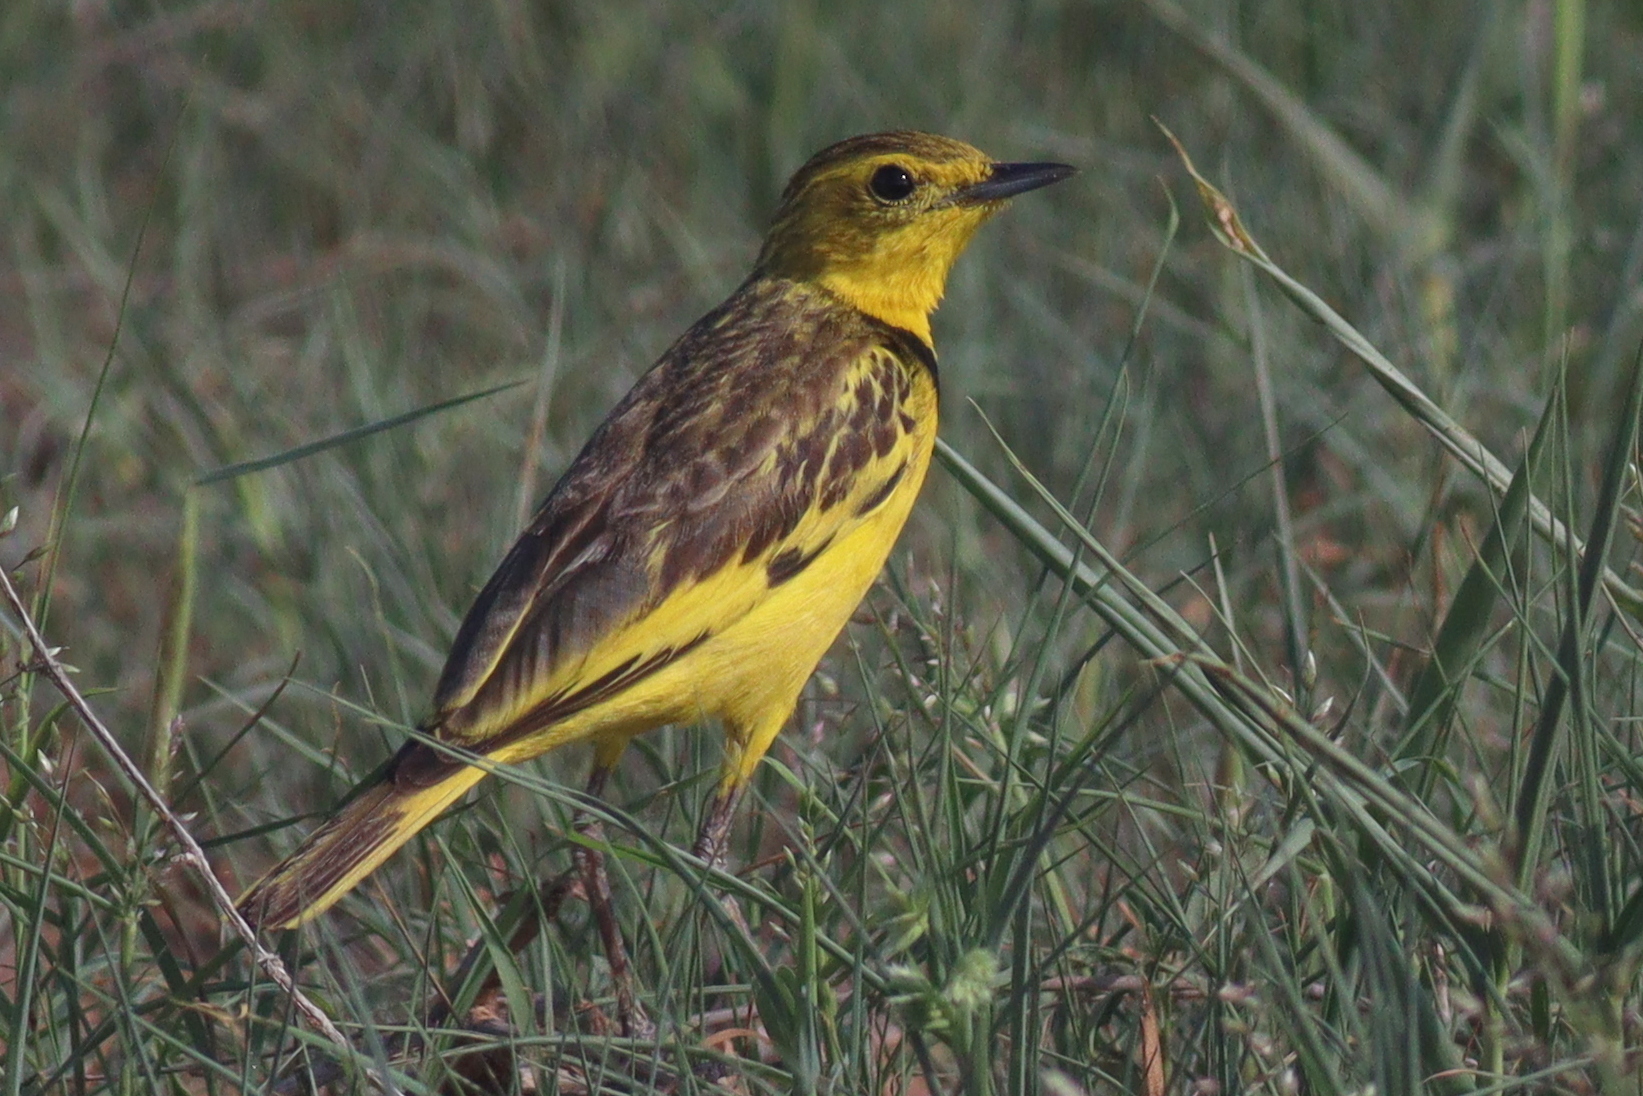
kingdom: Animalia
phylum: Chordata
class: Aves
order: Passeriformes
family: Motacillidae
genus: Tmetothylacus
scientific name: Tmetothylacus tenellus
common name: Golden pipit
